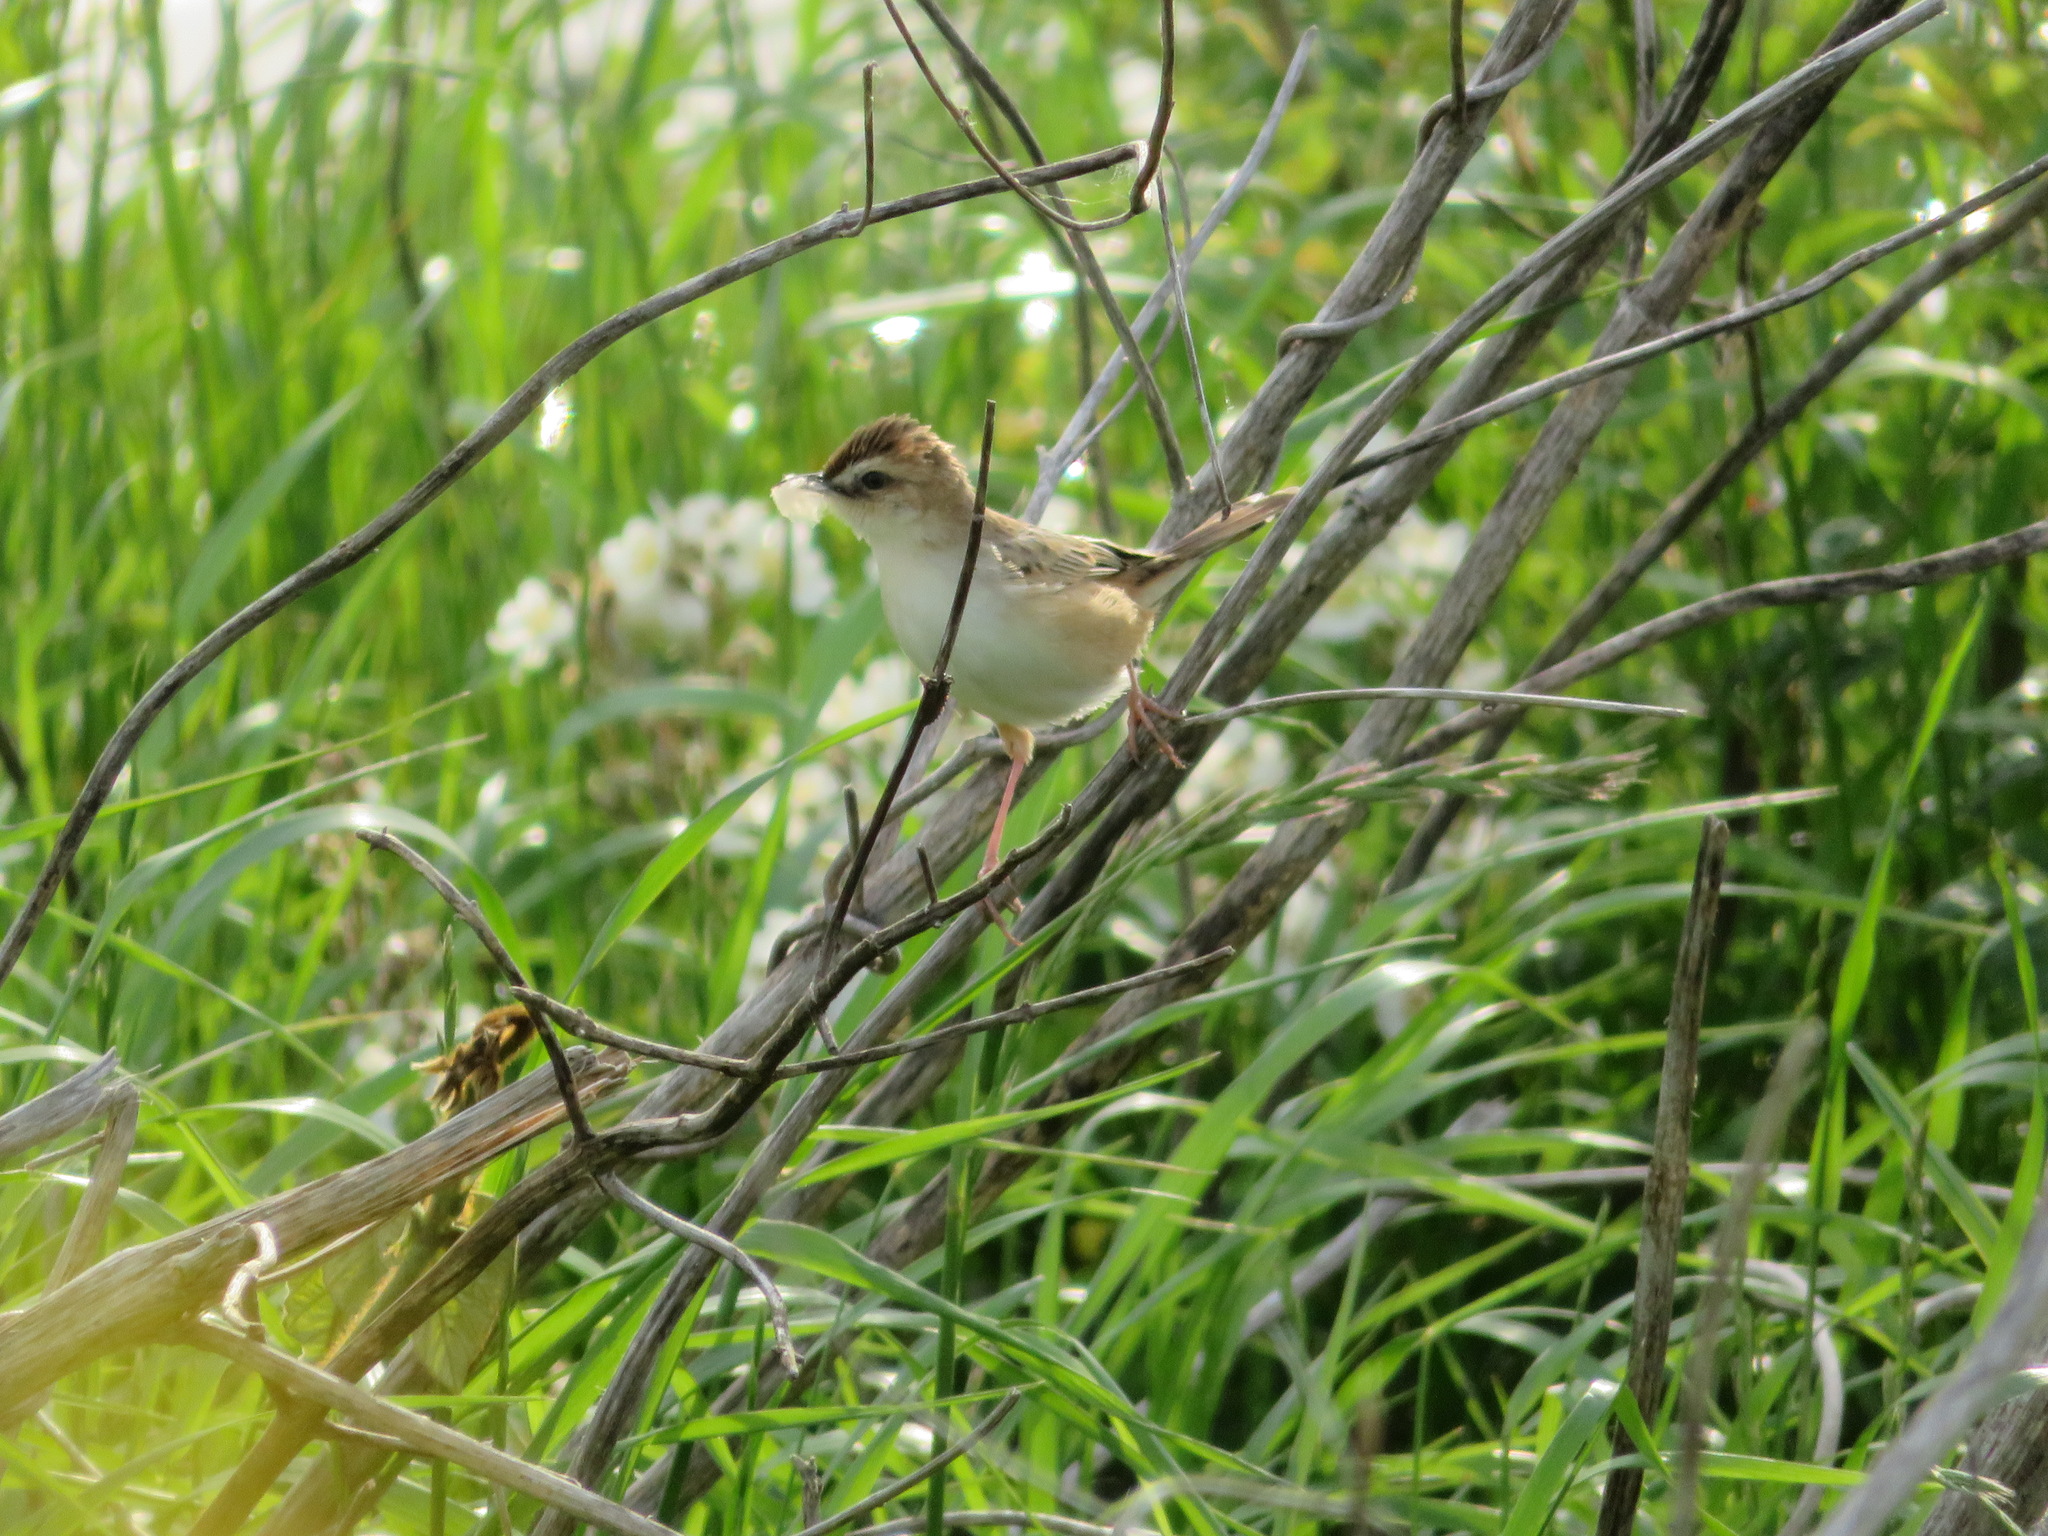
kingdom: Animalia
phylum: Chordata
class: Aves
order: Passeriformes
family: Acrocephalidae
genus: Acrocephalus
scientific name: Acrocephalus bistrigiceps
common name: Black-browed reed warbler
